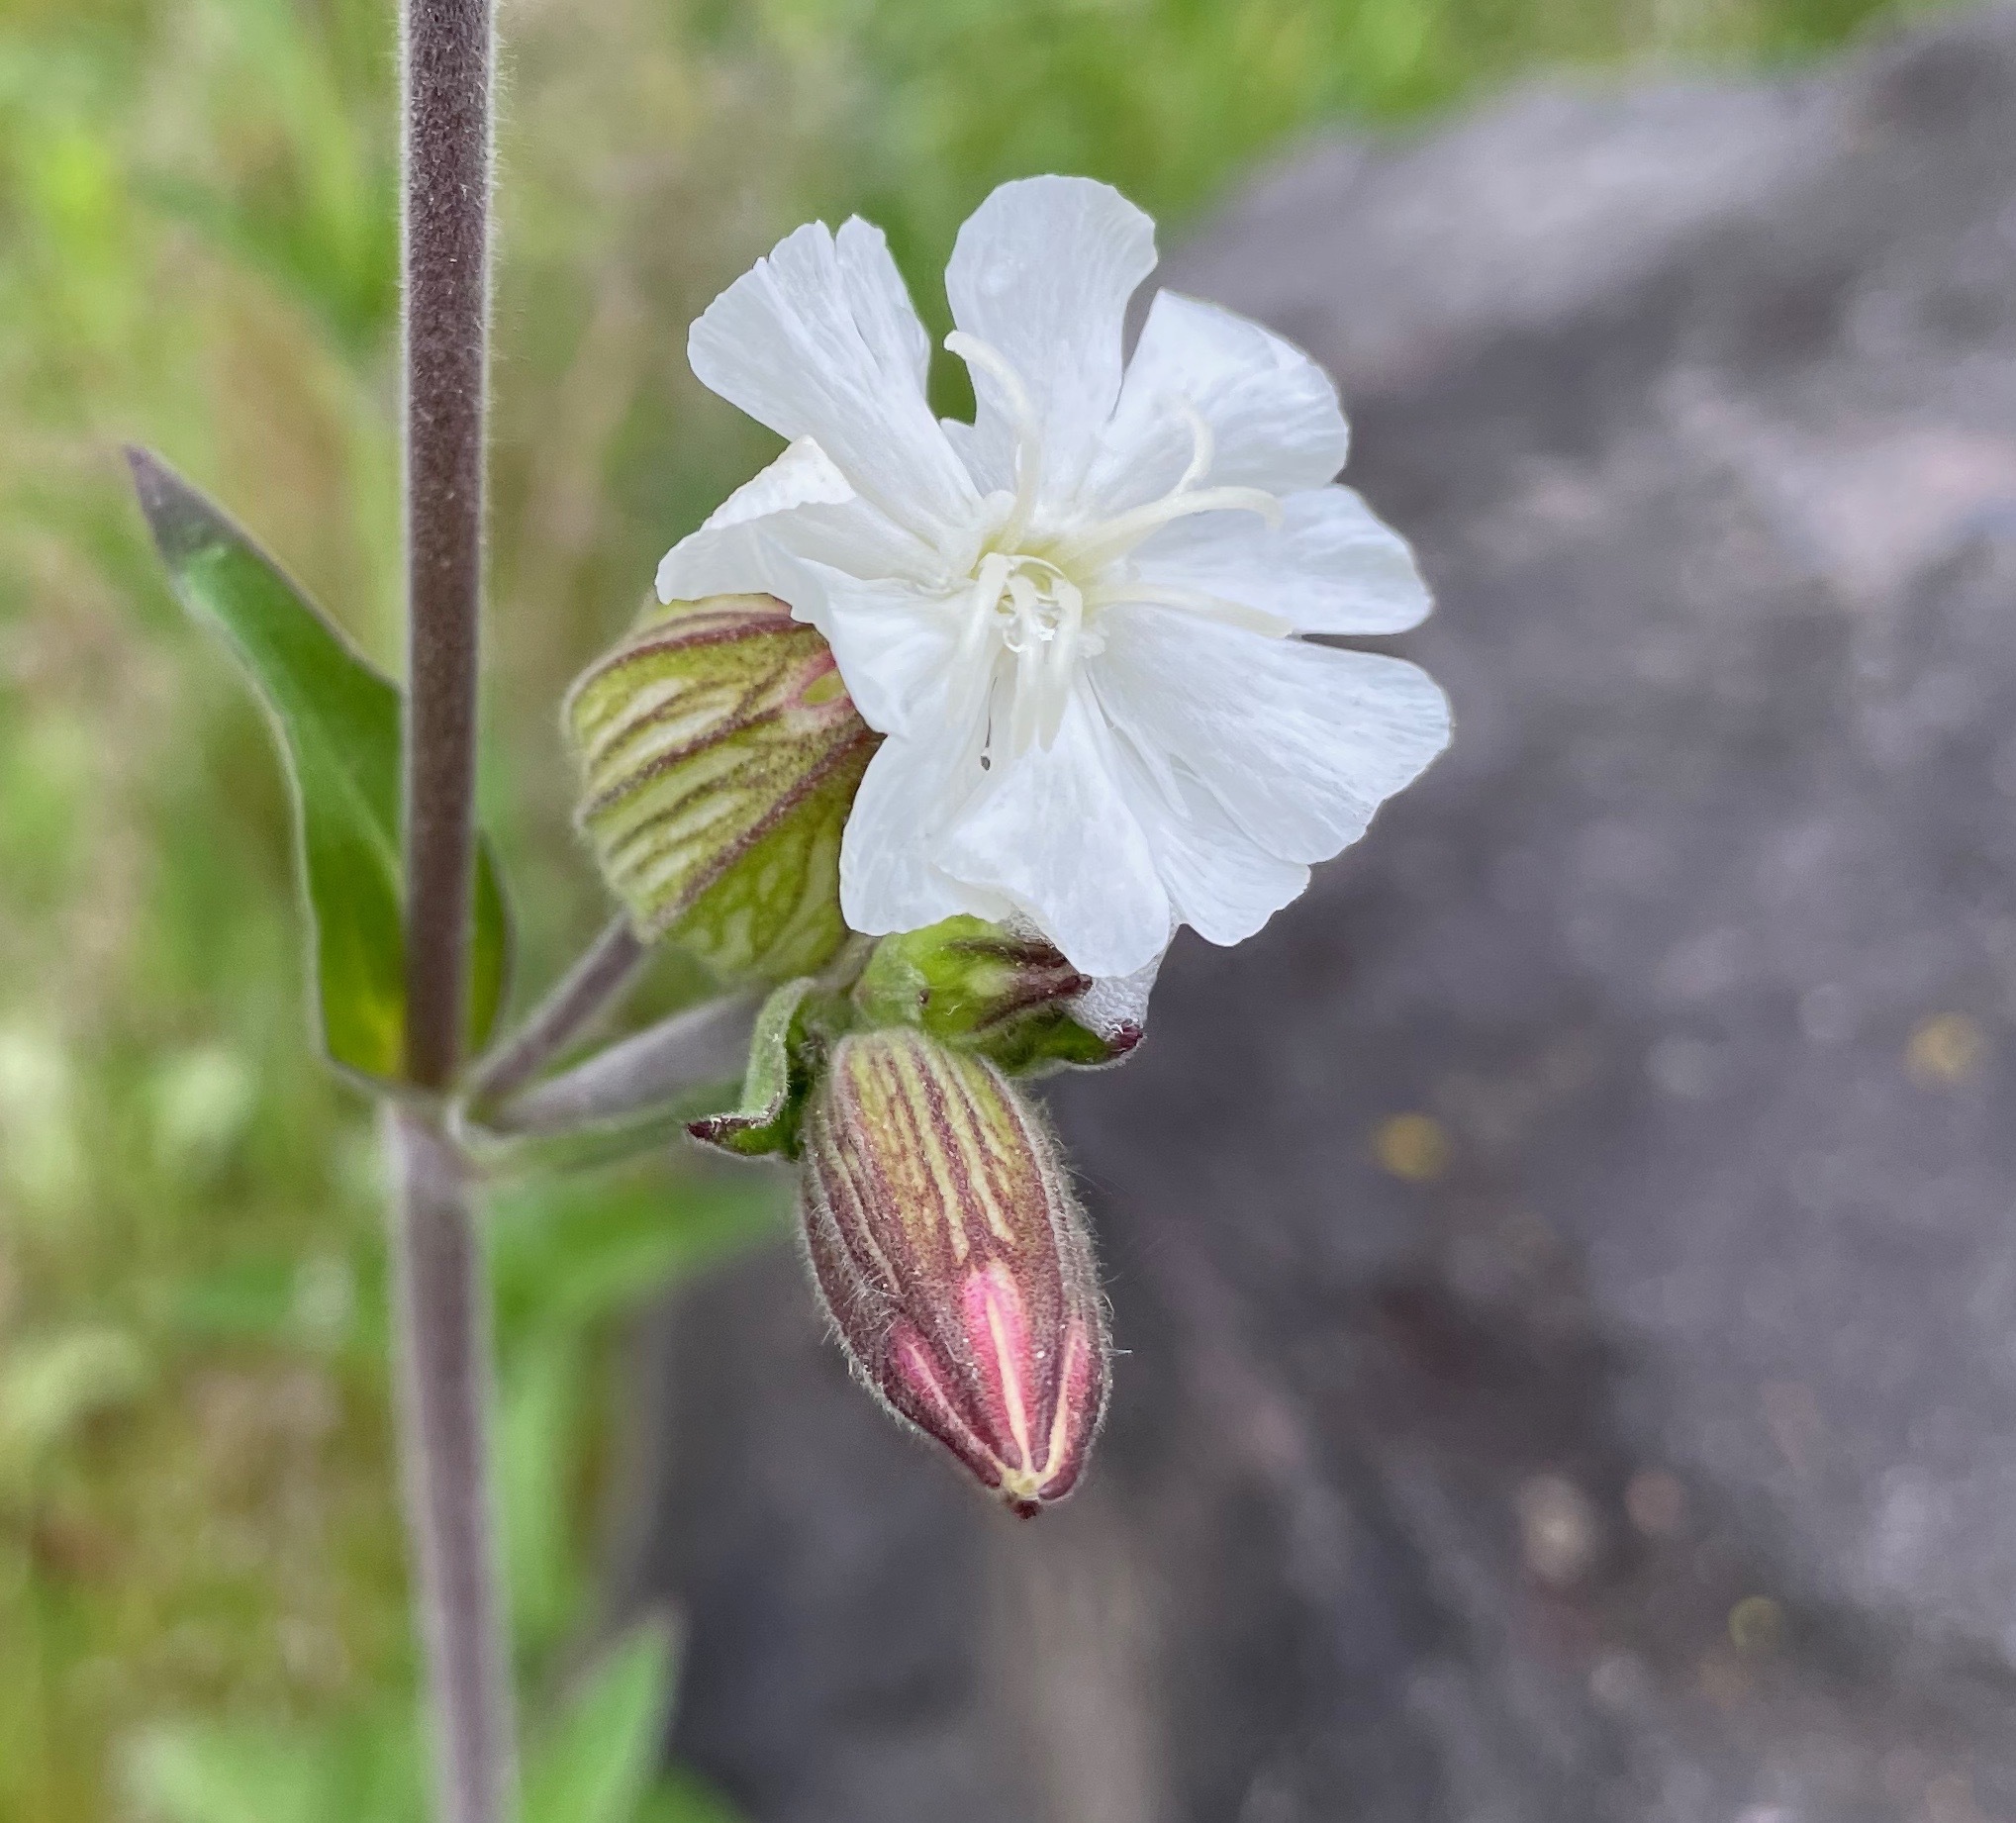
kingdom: Plantae
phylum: Tracheophyta
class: Magnoliopsida
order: Caryophyllales
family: Caryophyllaceae
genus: Silene
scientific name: Silene latifolia
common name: White campion
